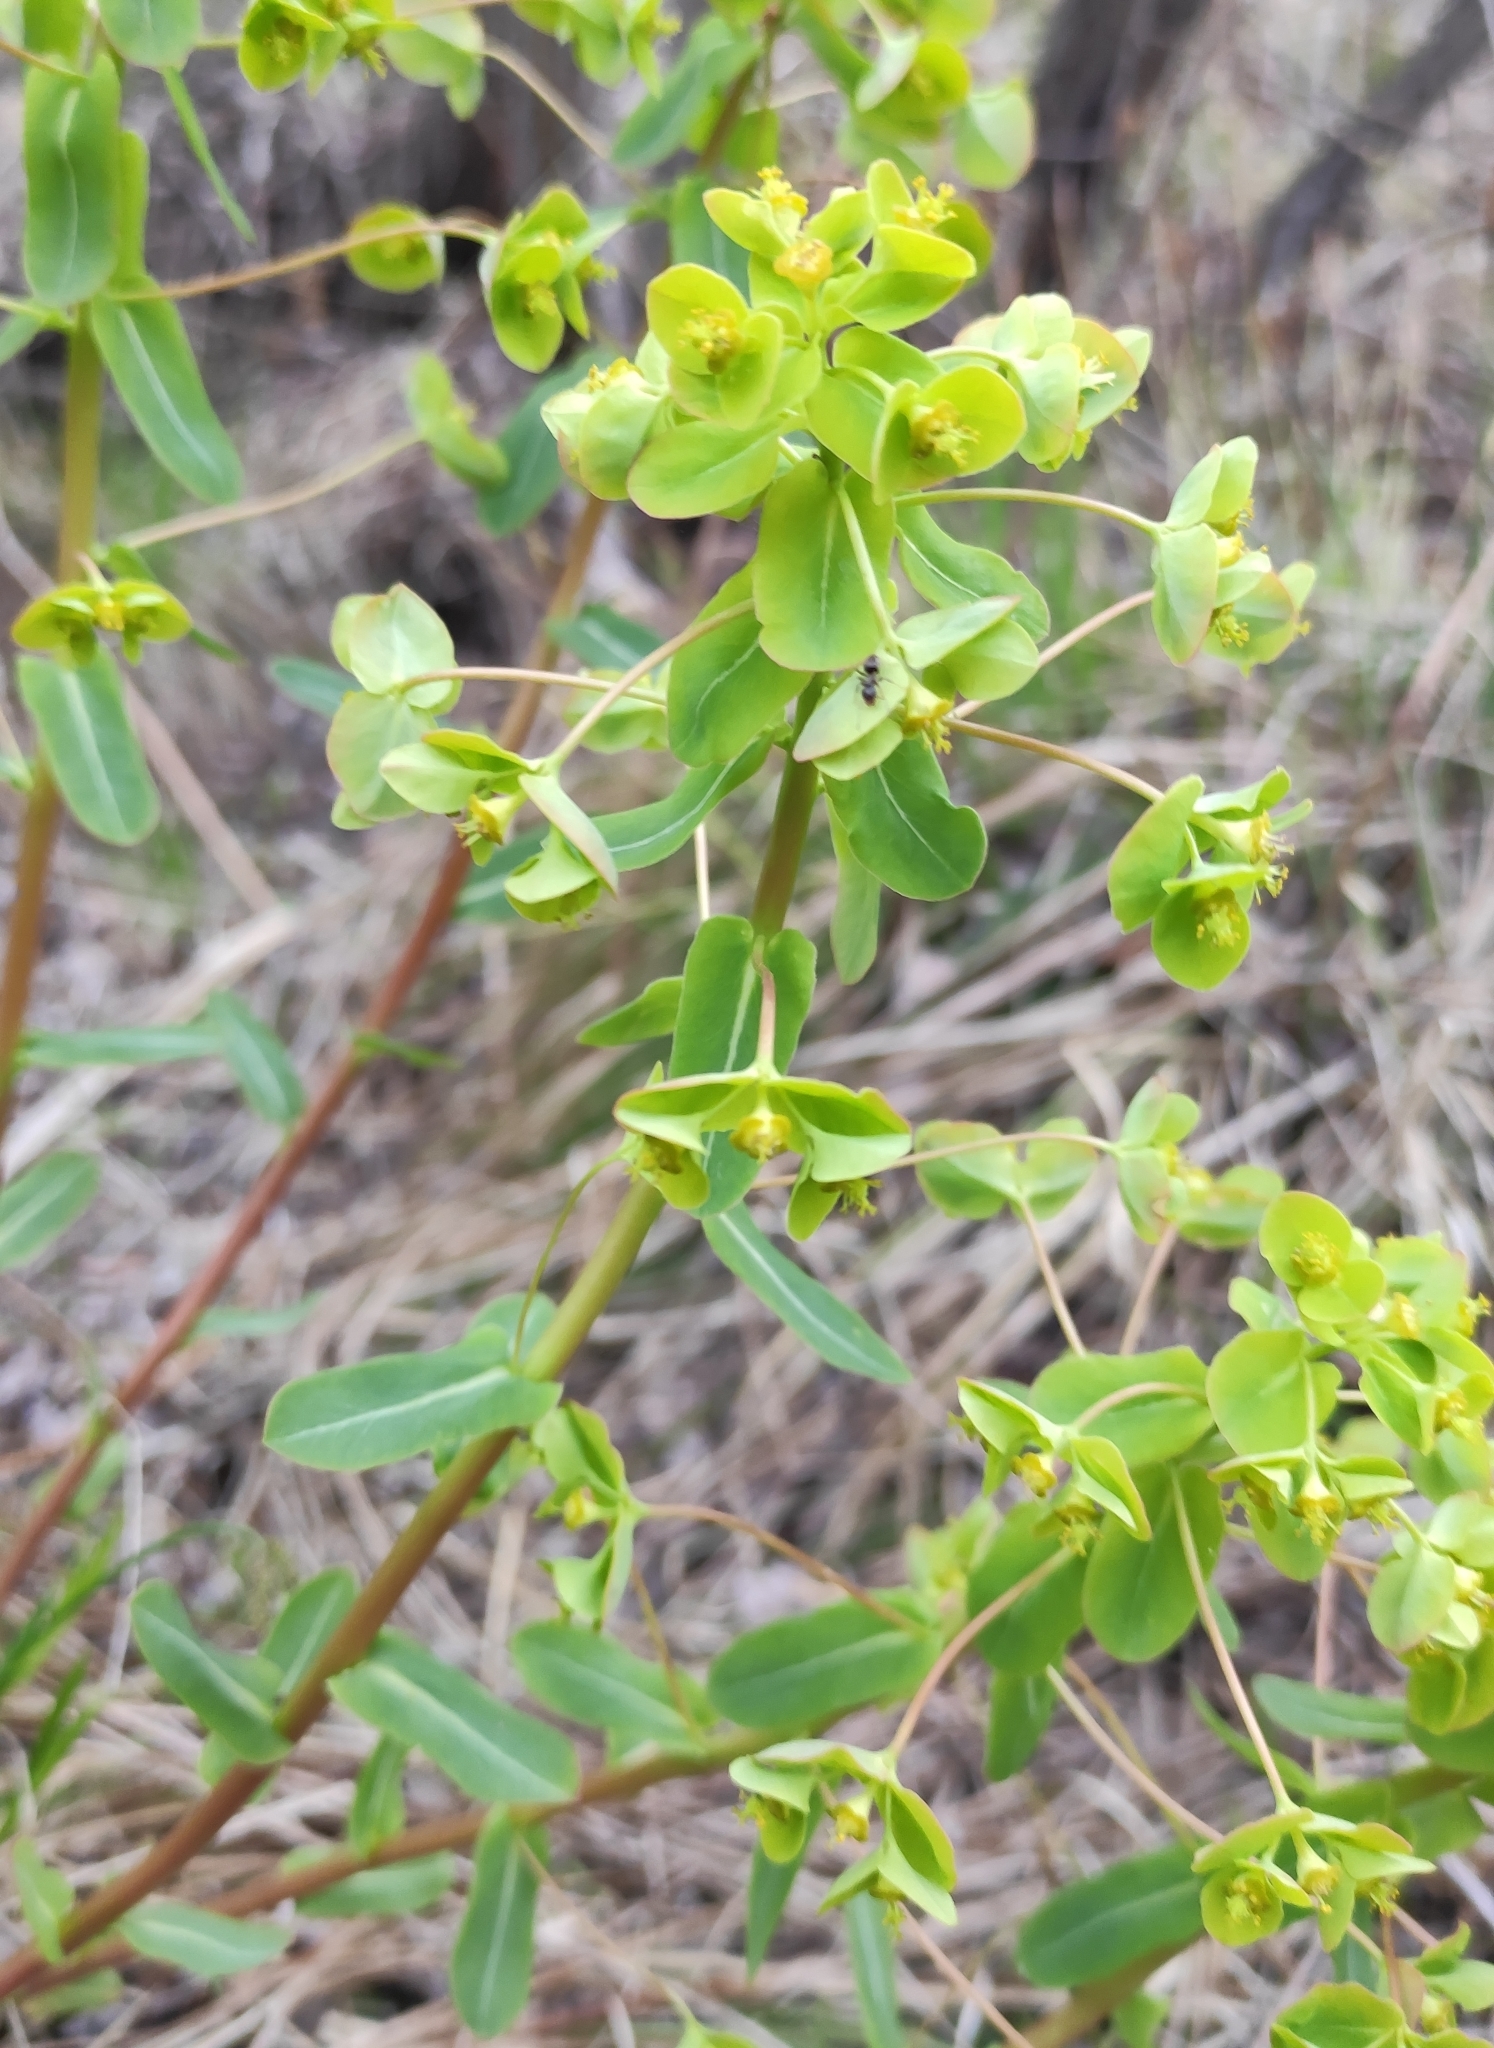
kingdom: Plantae
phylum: Tracheophyta
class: Magnoliopsida
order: Malpighiales
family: Euphorbiaceae
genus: Euphorbia
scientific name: Euphorbia jenisseiensis
